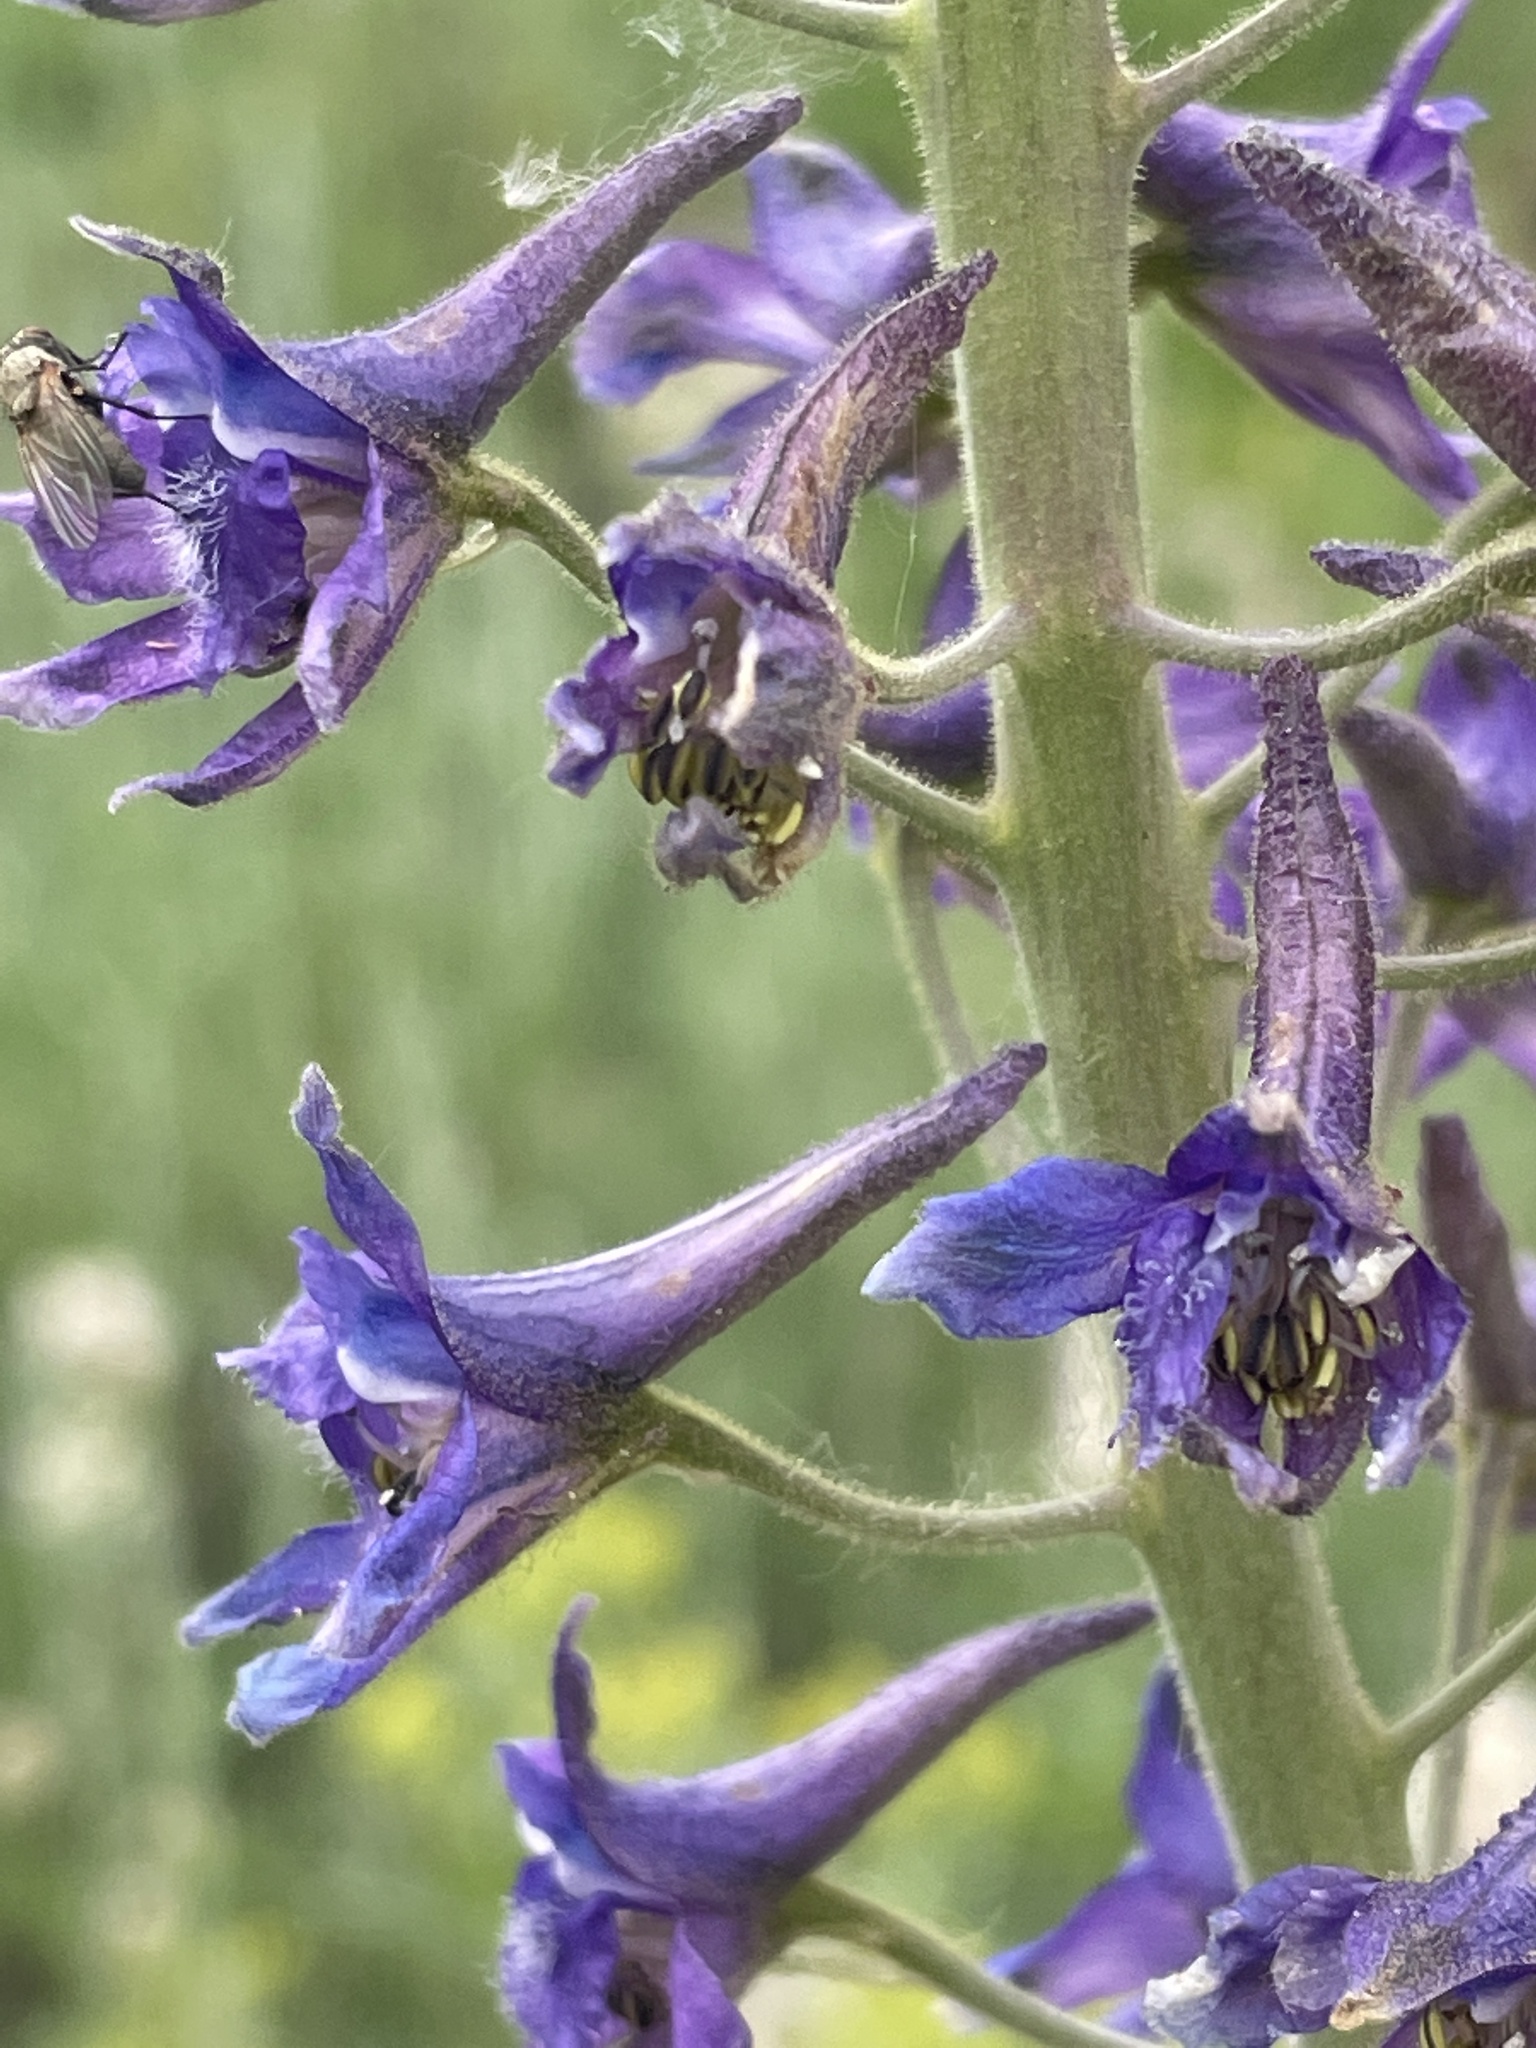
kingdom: Plantae
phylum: Tracheophyta
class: Magnoliopsida
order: Ranunculales
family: Ranunculaceae
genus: Delphinium
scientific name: Delphinium occidentale
